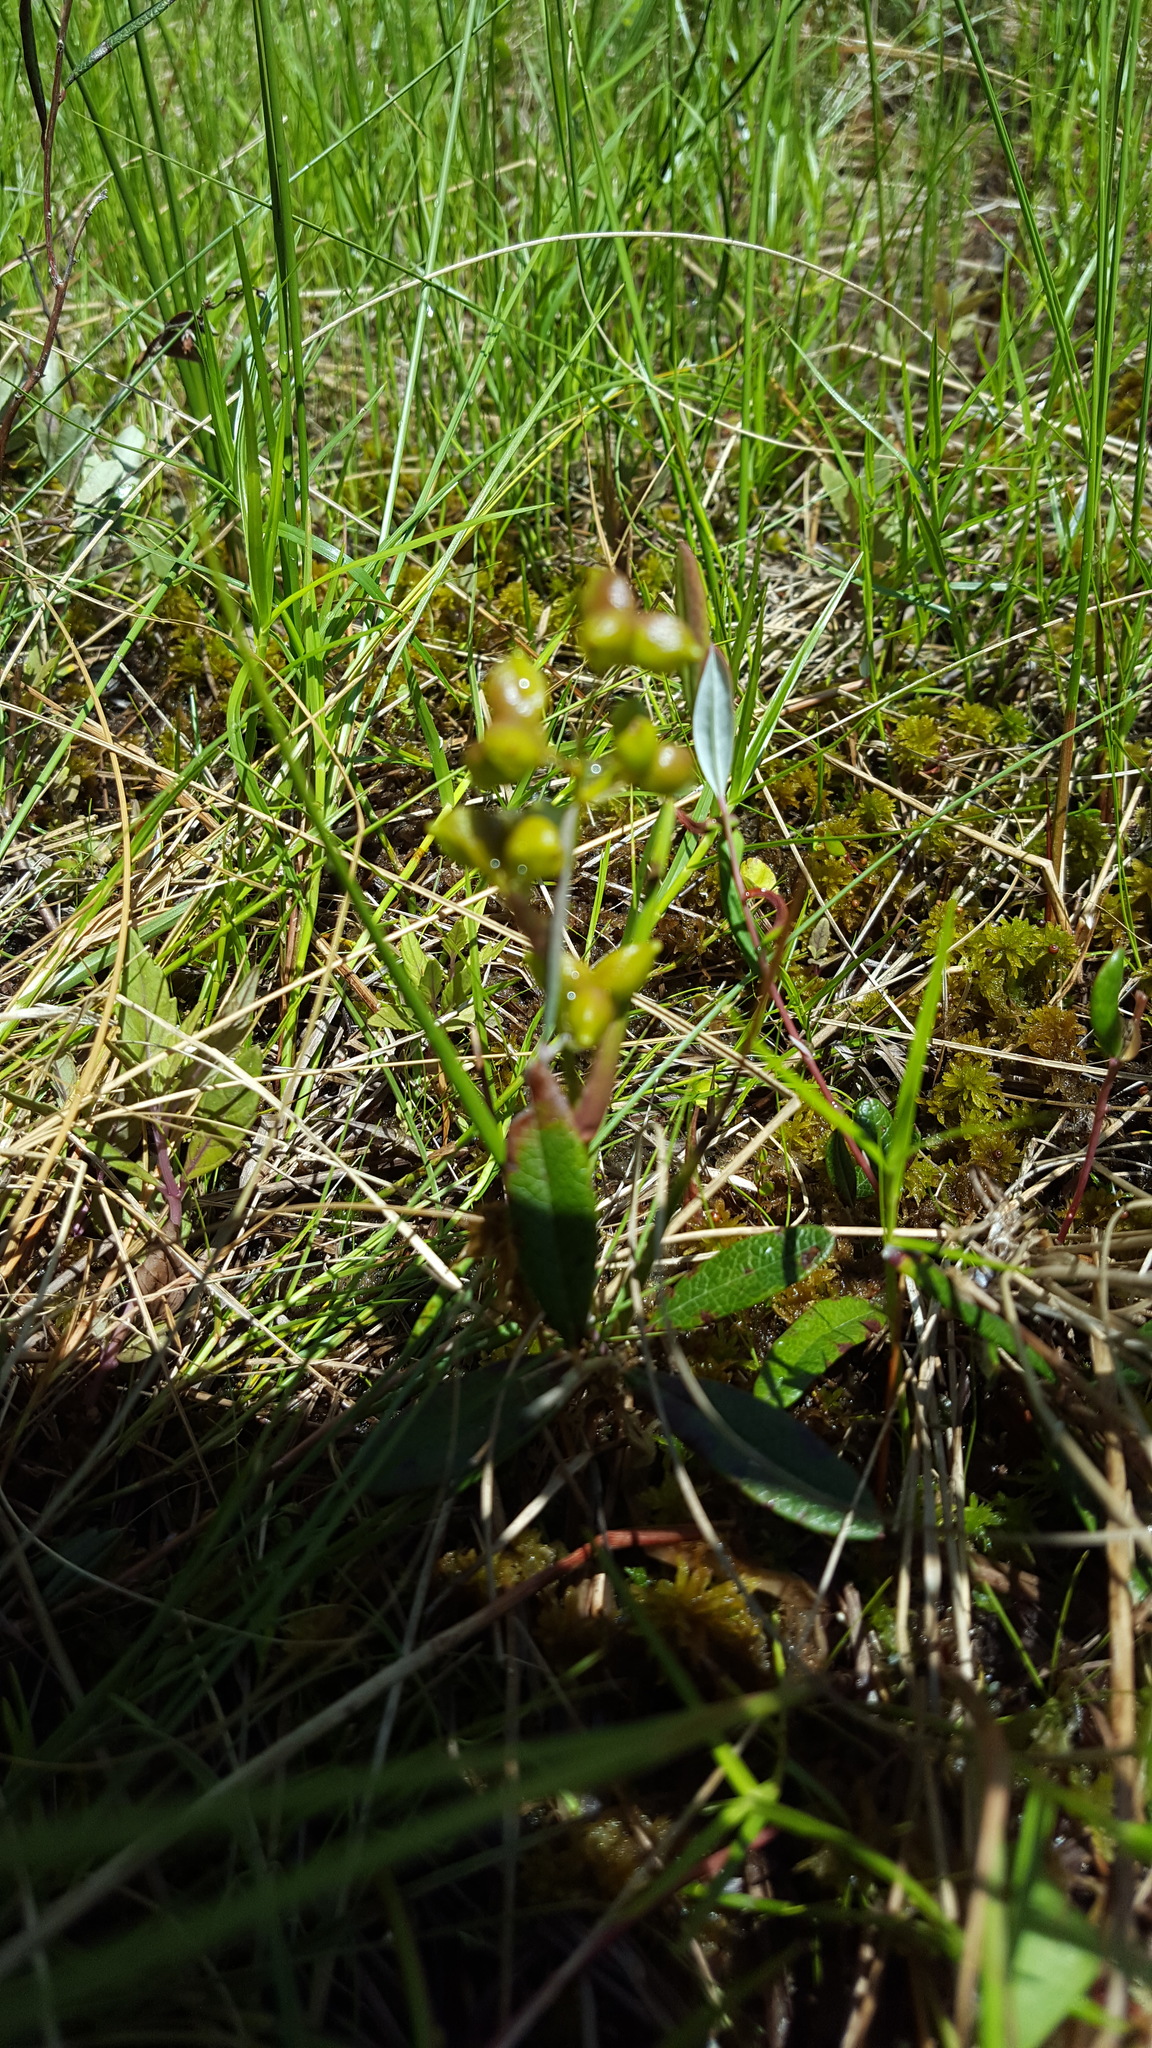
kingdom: Plantae
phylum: Tracheophyta
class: Liliopsida
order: Alismatales
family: Scheuchzeriaceae
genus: Scheuchzeria
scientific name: Scheuchzeria palustris
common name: Rannoch-rush
